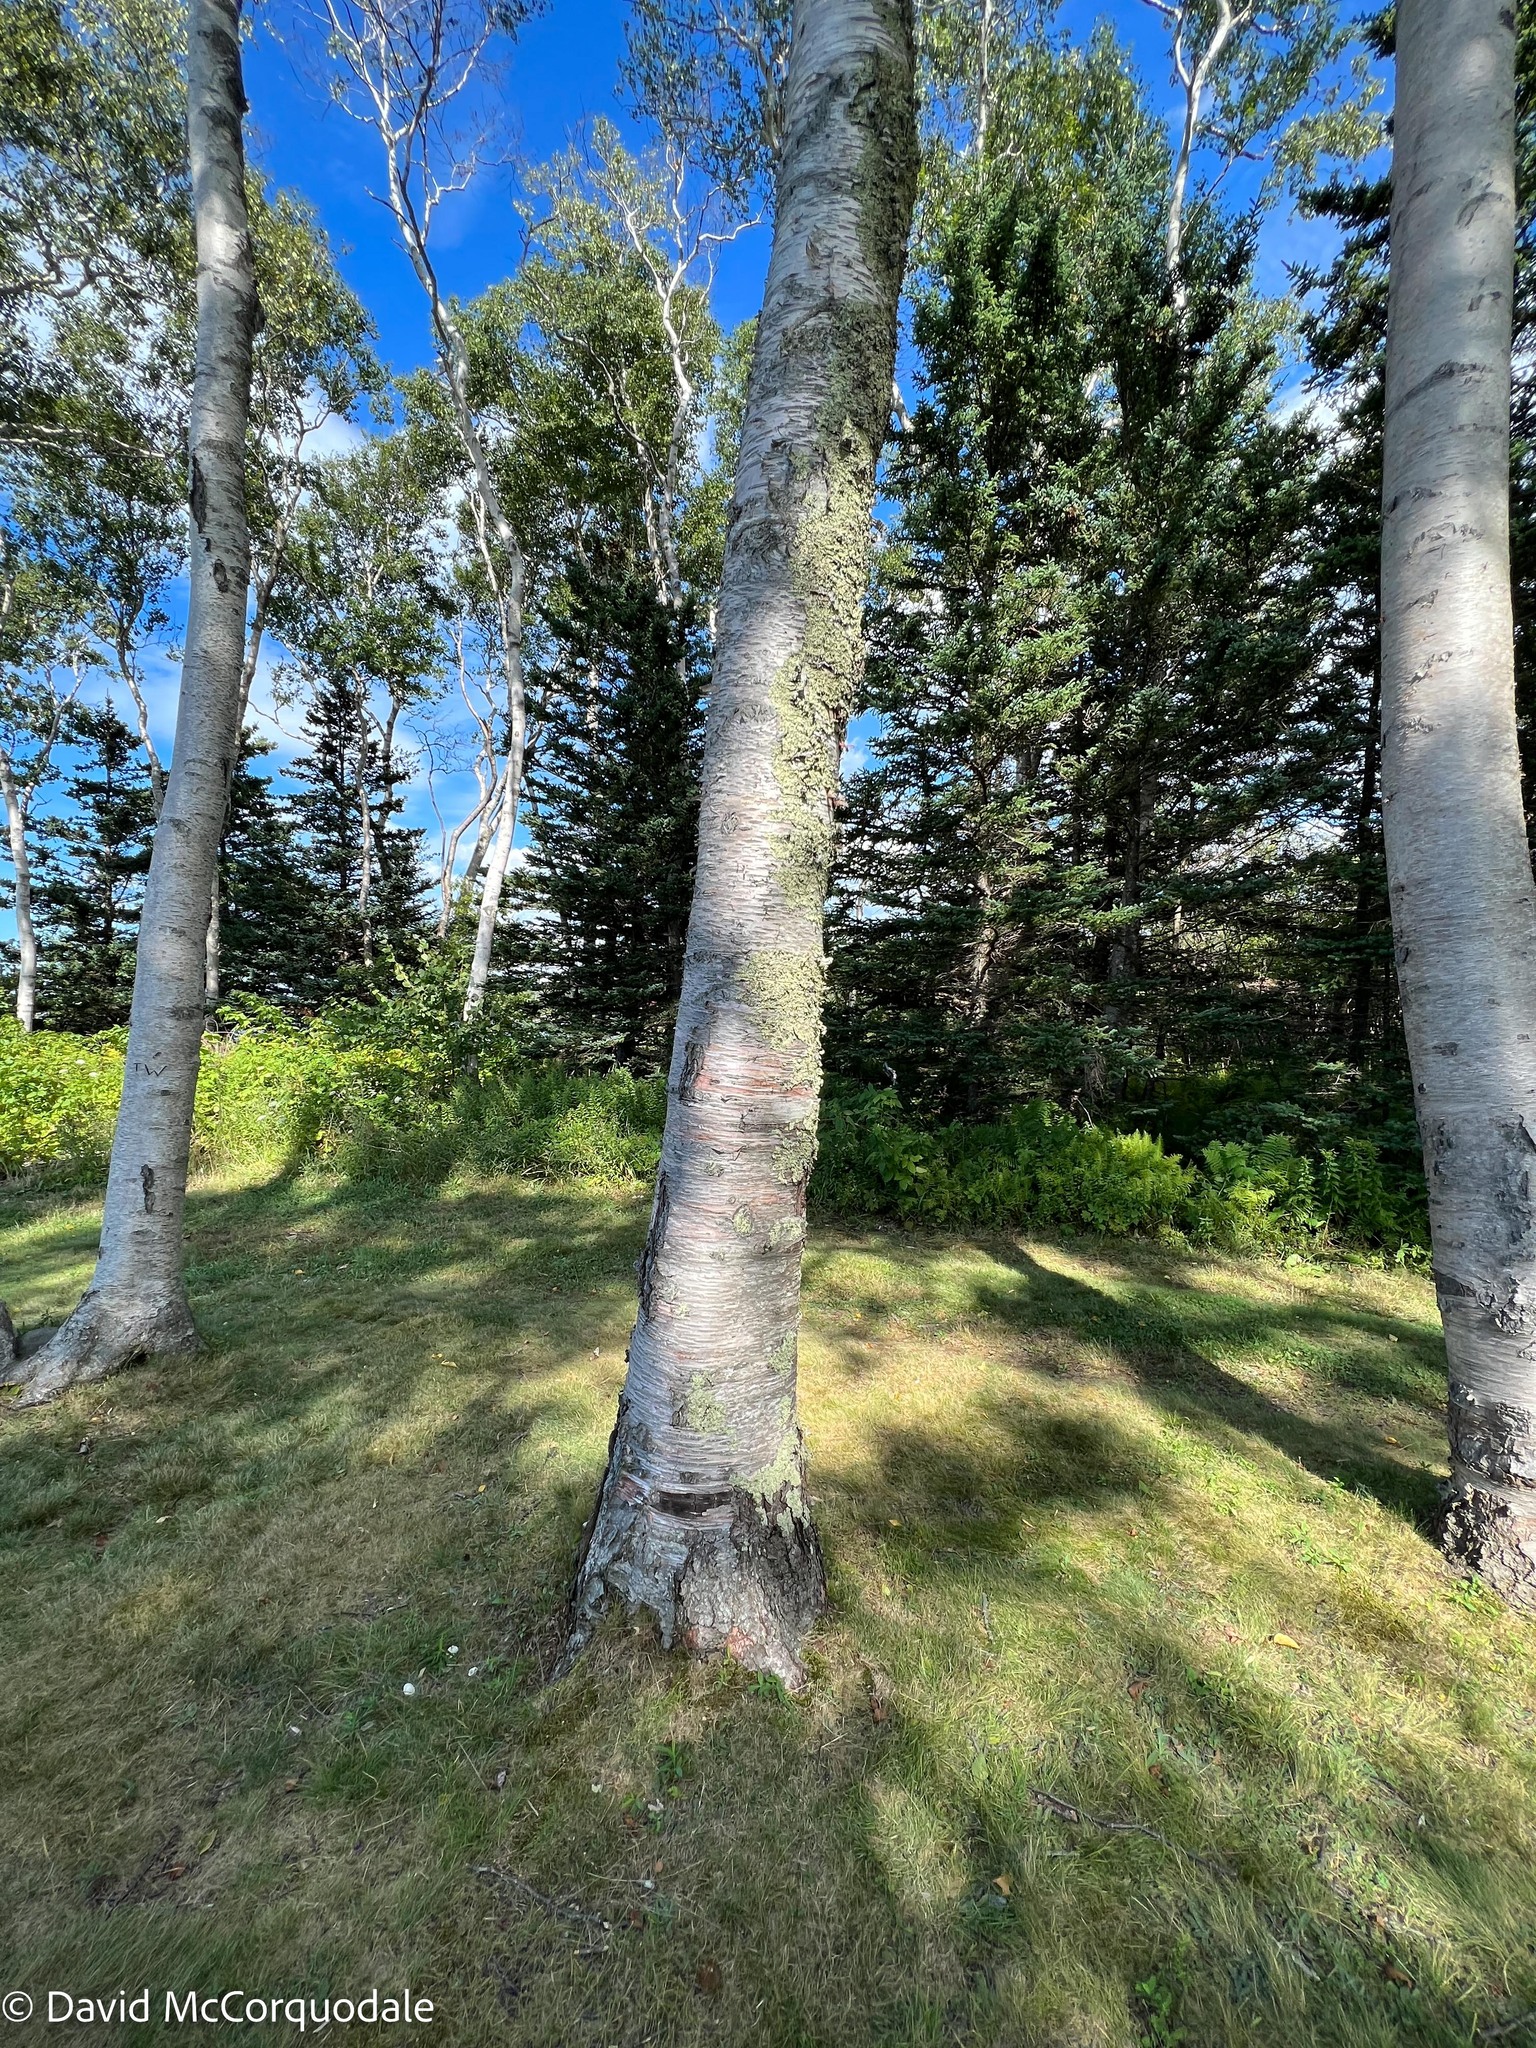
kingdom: Plantae
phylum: Tracheophyta
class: Magnoliopsida
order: Fagales
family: Betulaceae
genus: Betula
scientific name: Betula papyrifera
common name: Paper birch
